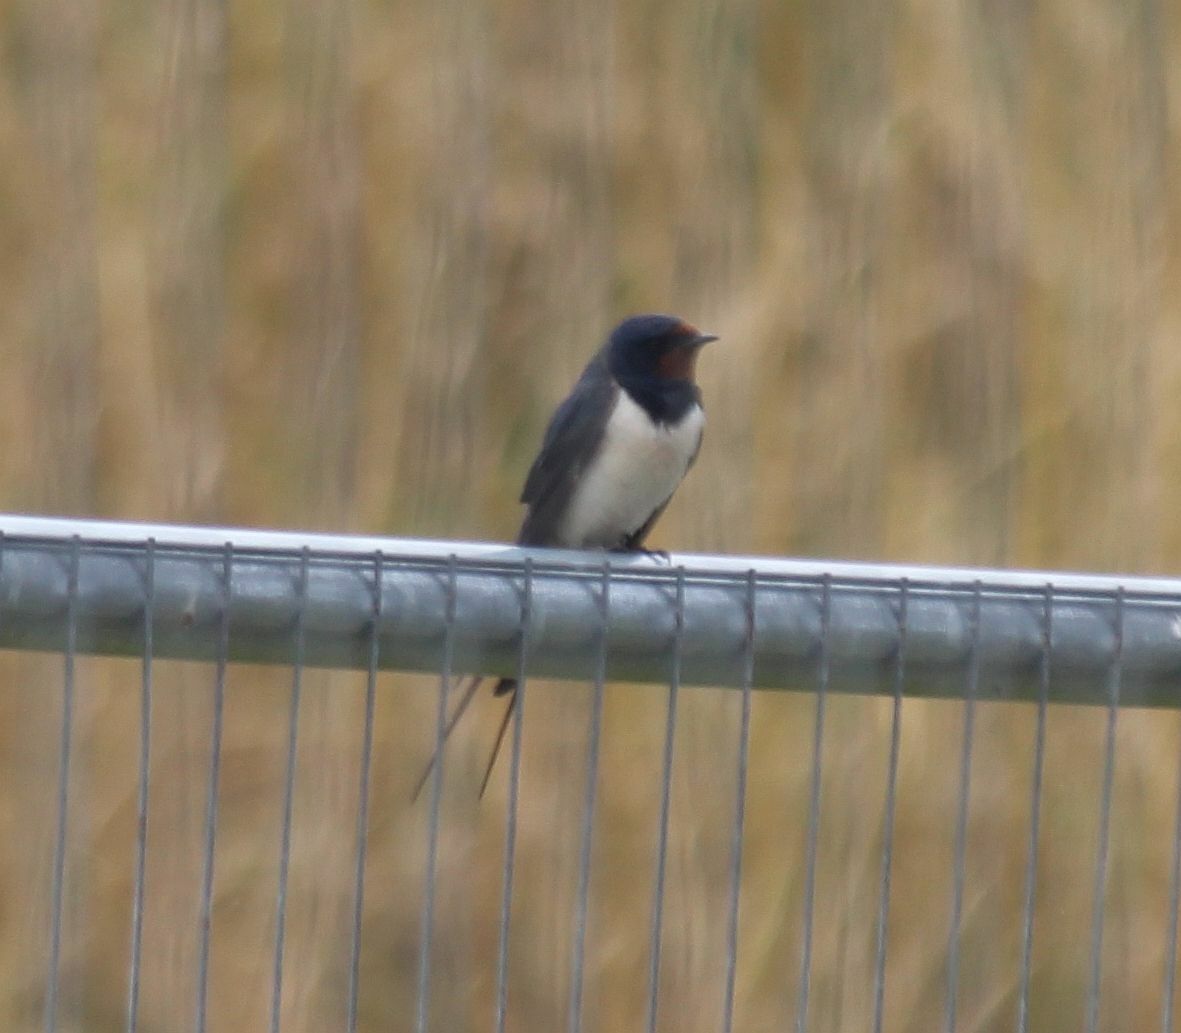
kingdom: Animalia
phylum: Chordata
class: Aves
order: Passeriformes
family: Hirundinidae
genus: Hirundo
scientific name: Hirundo rustica
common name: Barn swallow
